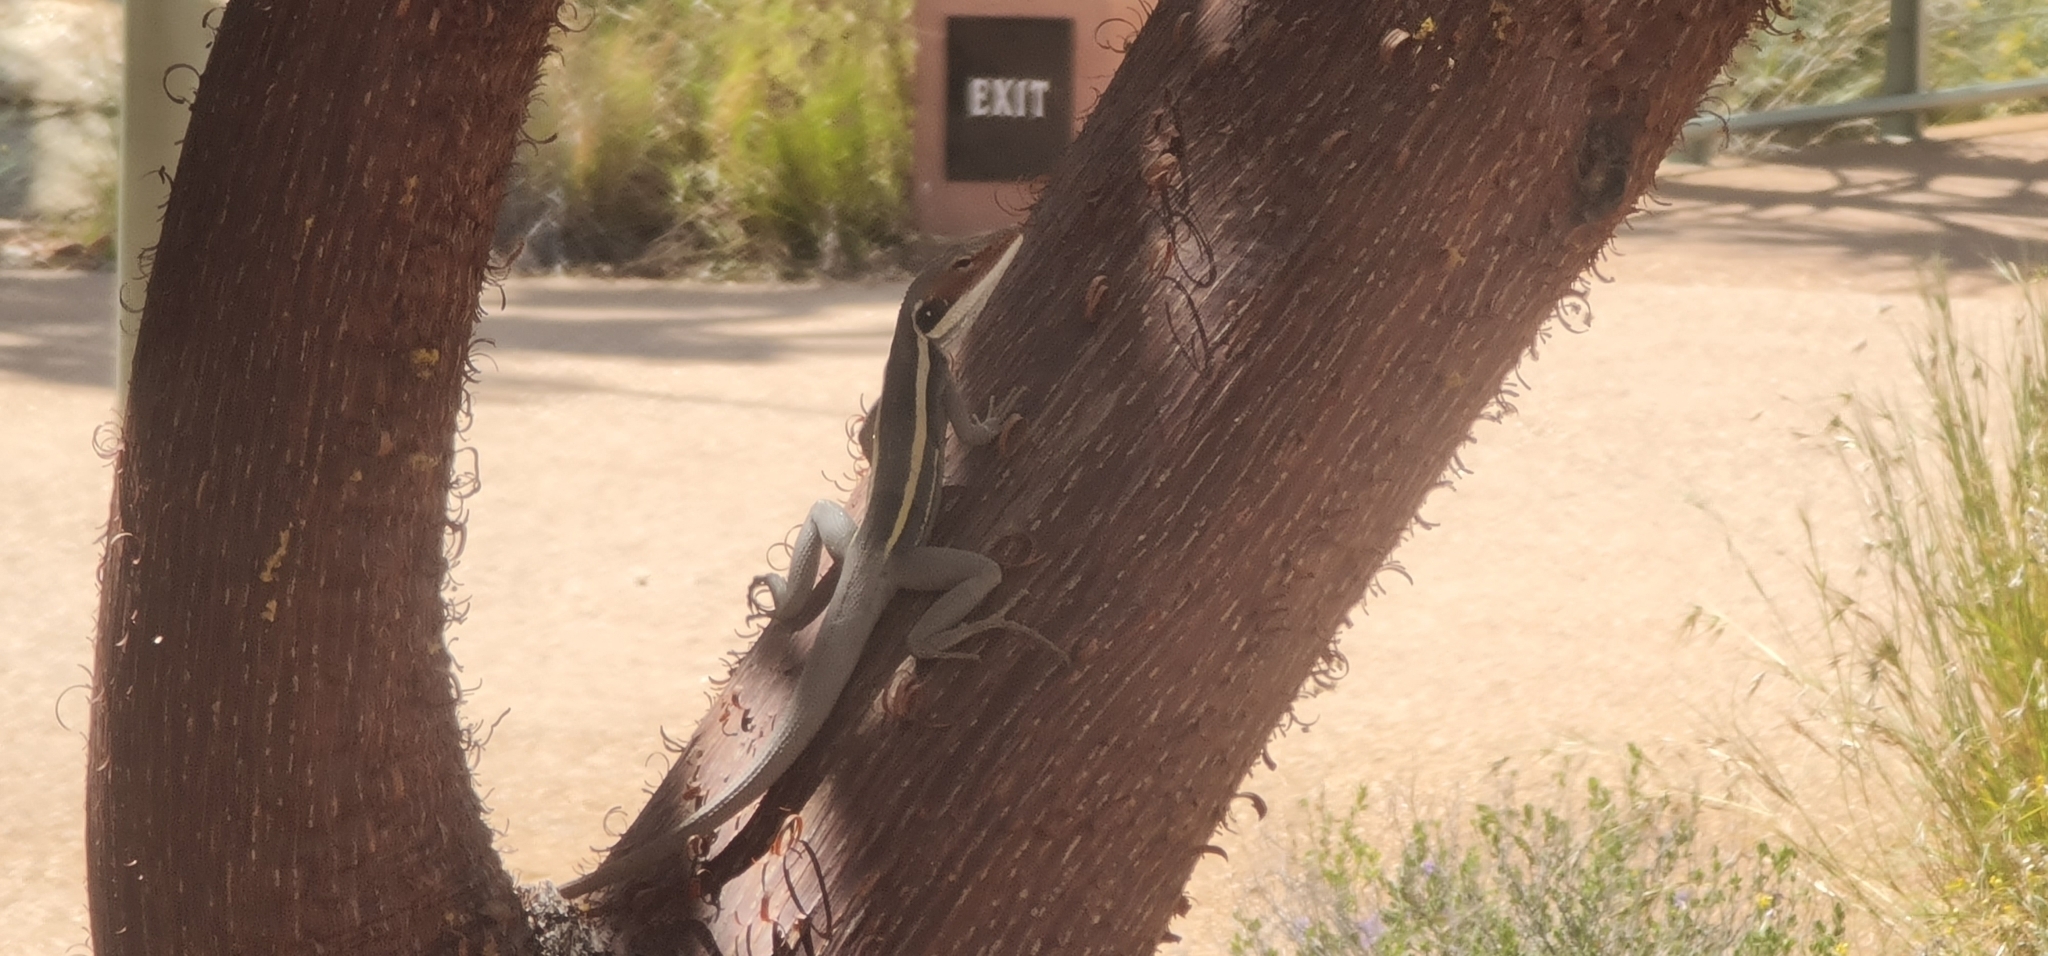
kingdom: Animalia
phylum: Chordata
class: Squamata
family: Agamidae
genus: Gowidon
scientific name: Gowidon longirostris
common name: Long-nosed water dragon
